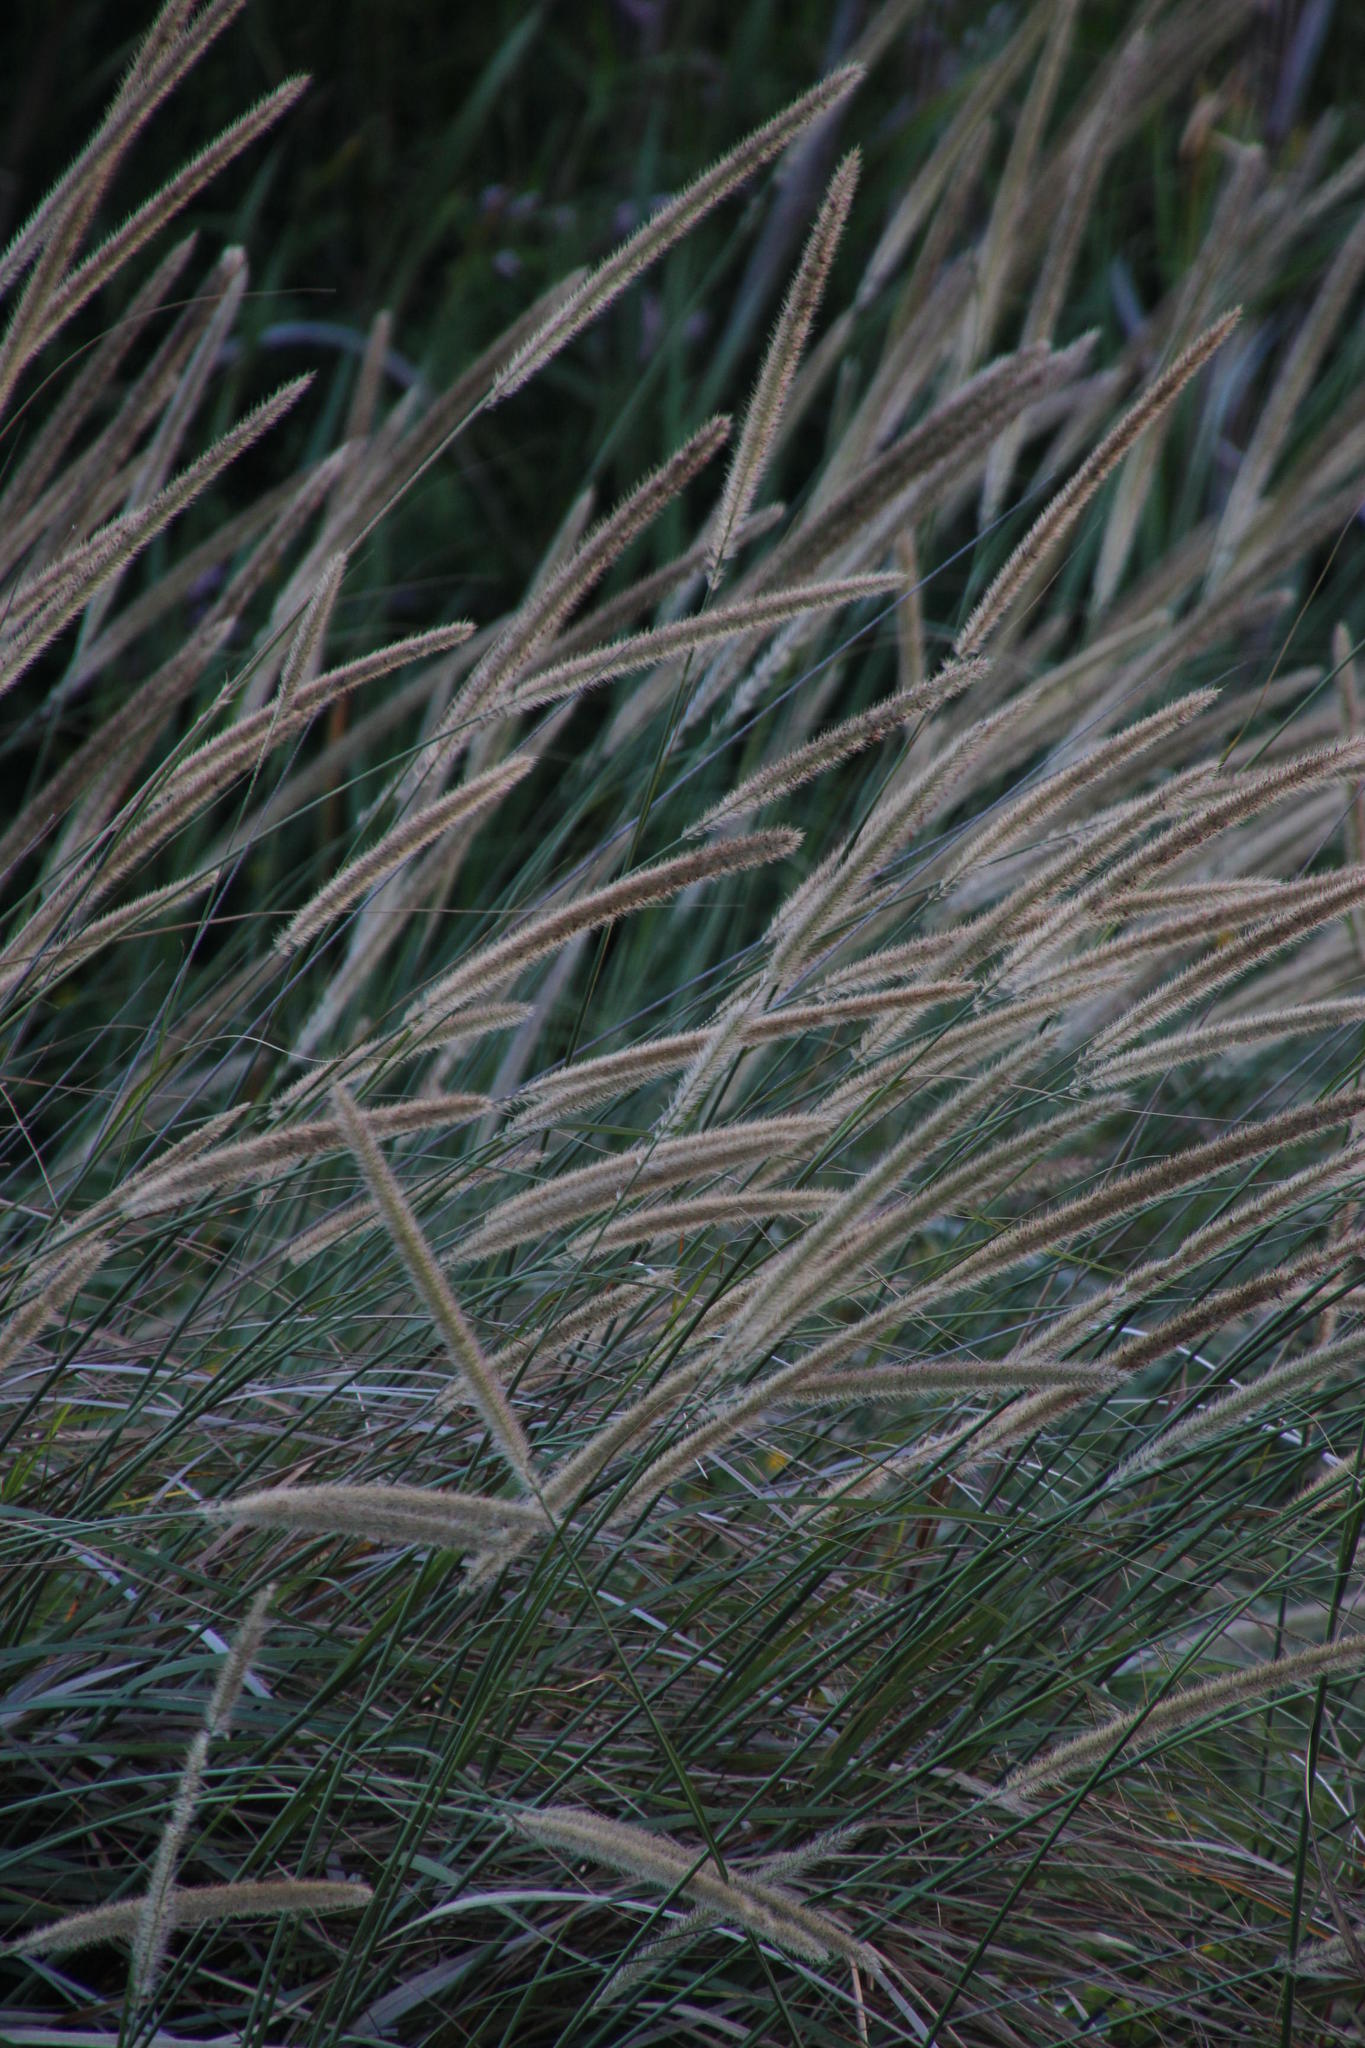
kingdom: Plantae
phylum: Tracheophyta
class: Liliopsida
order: Poales
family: Poaceae
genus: Cenchrus
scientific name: Cenchrus caudatus
